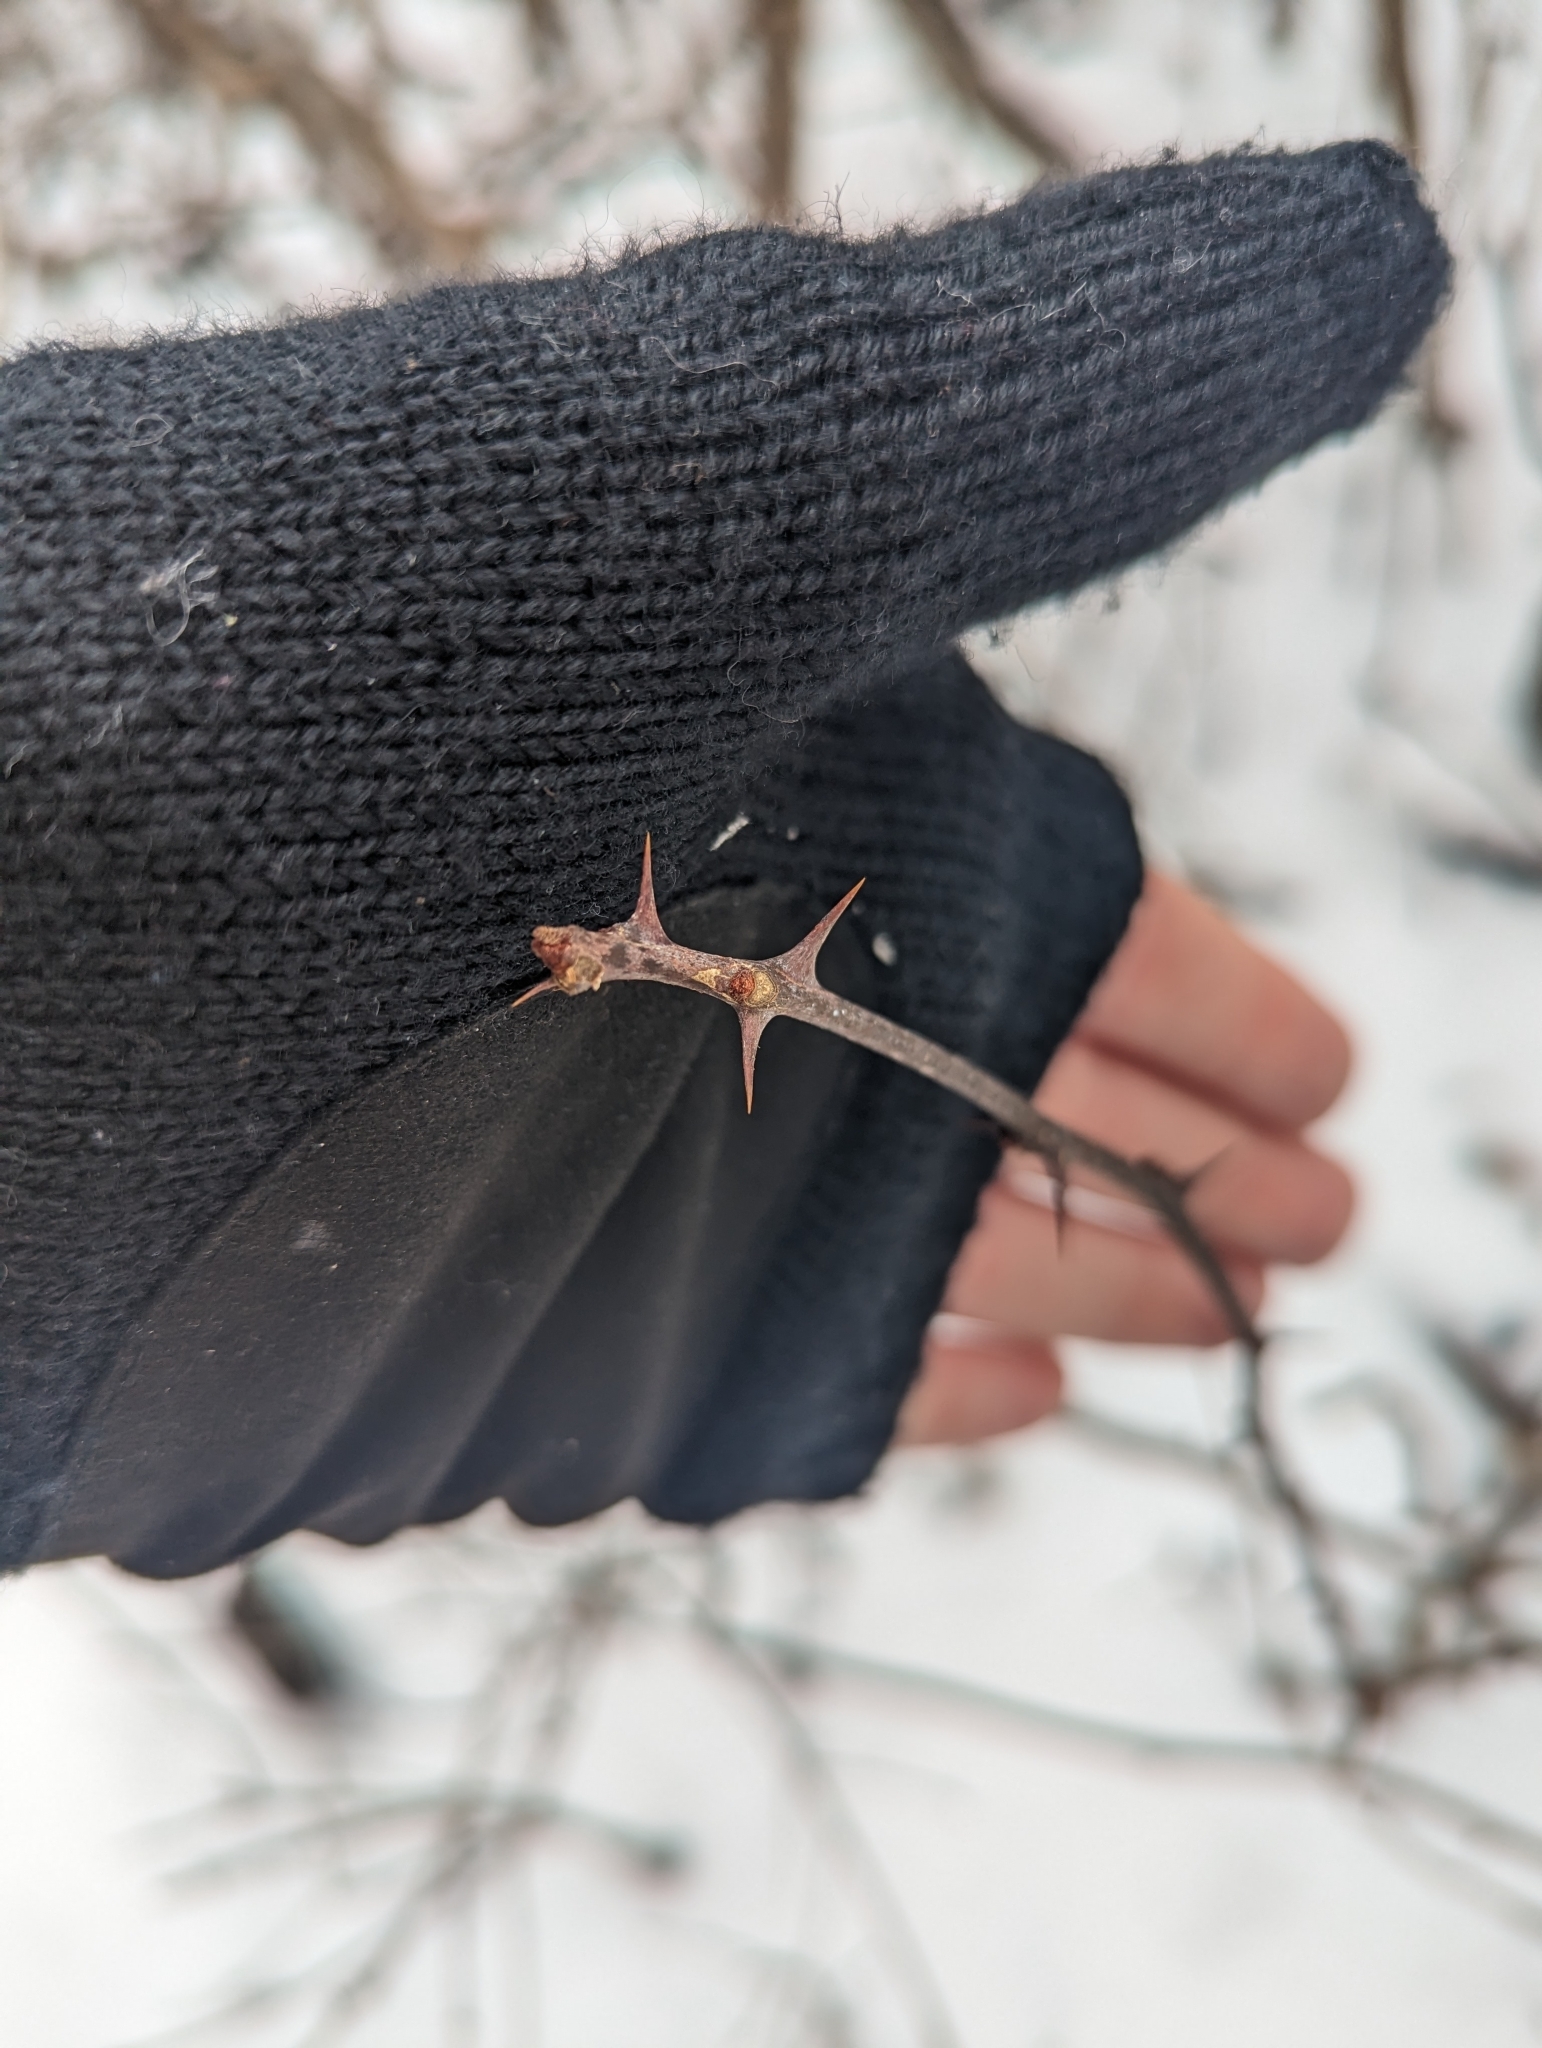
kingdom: Plantae
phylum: Tracheophyta
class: Magnoliopsida
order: Sapindales
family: Rutaceae
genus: Zanthoxylum
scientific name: Zanthoxylum americanum
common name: Northern prickly-ash
